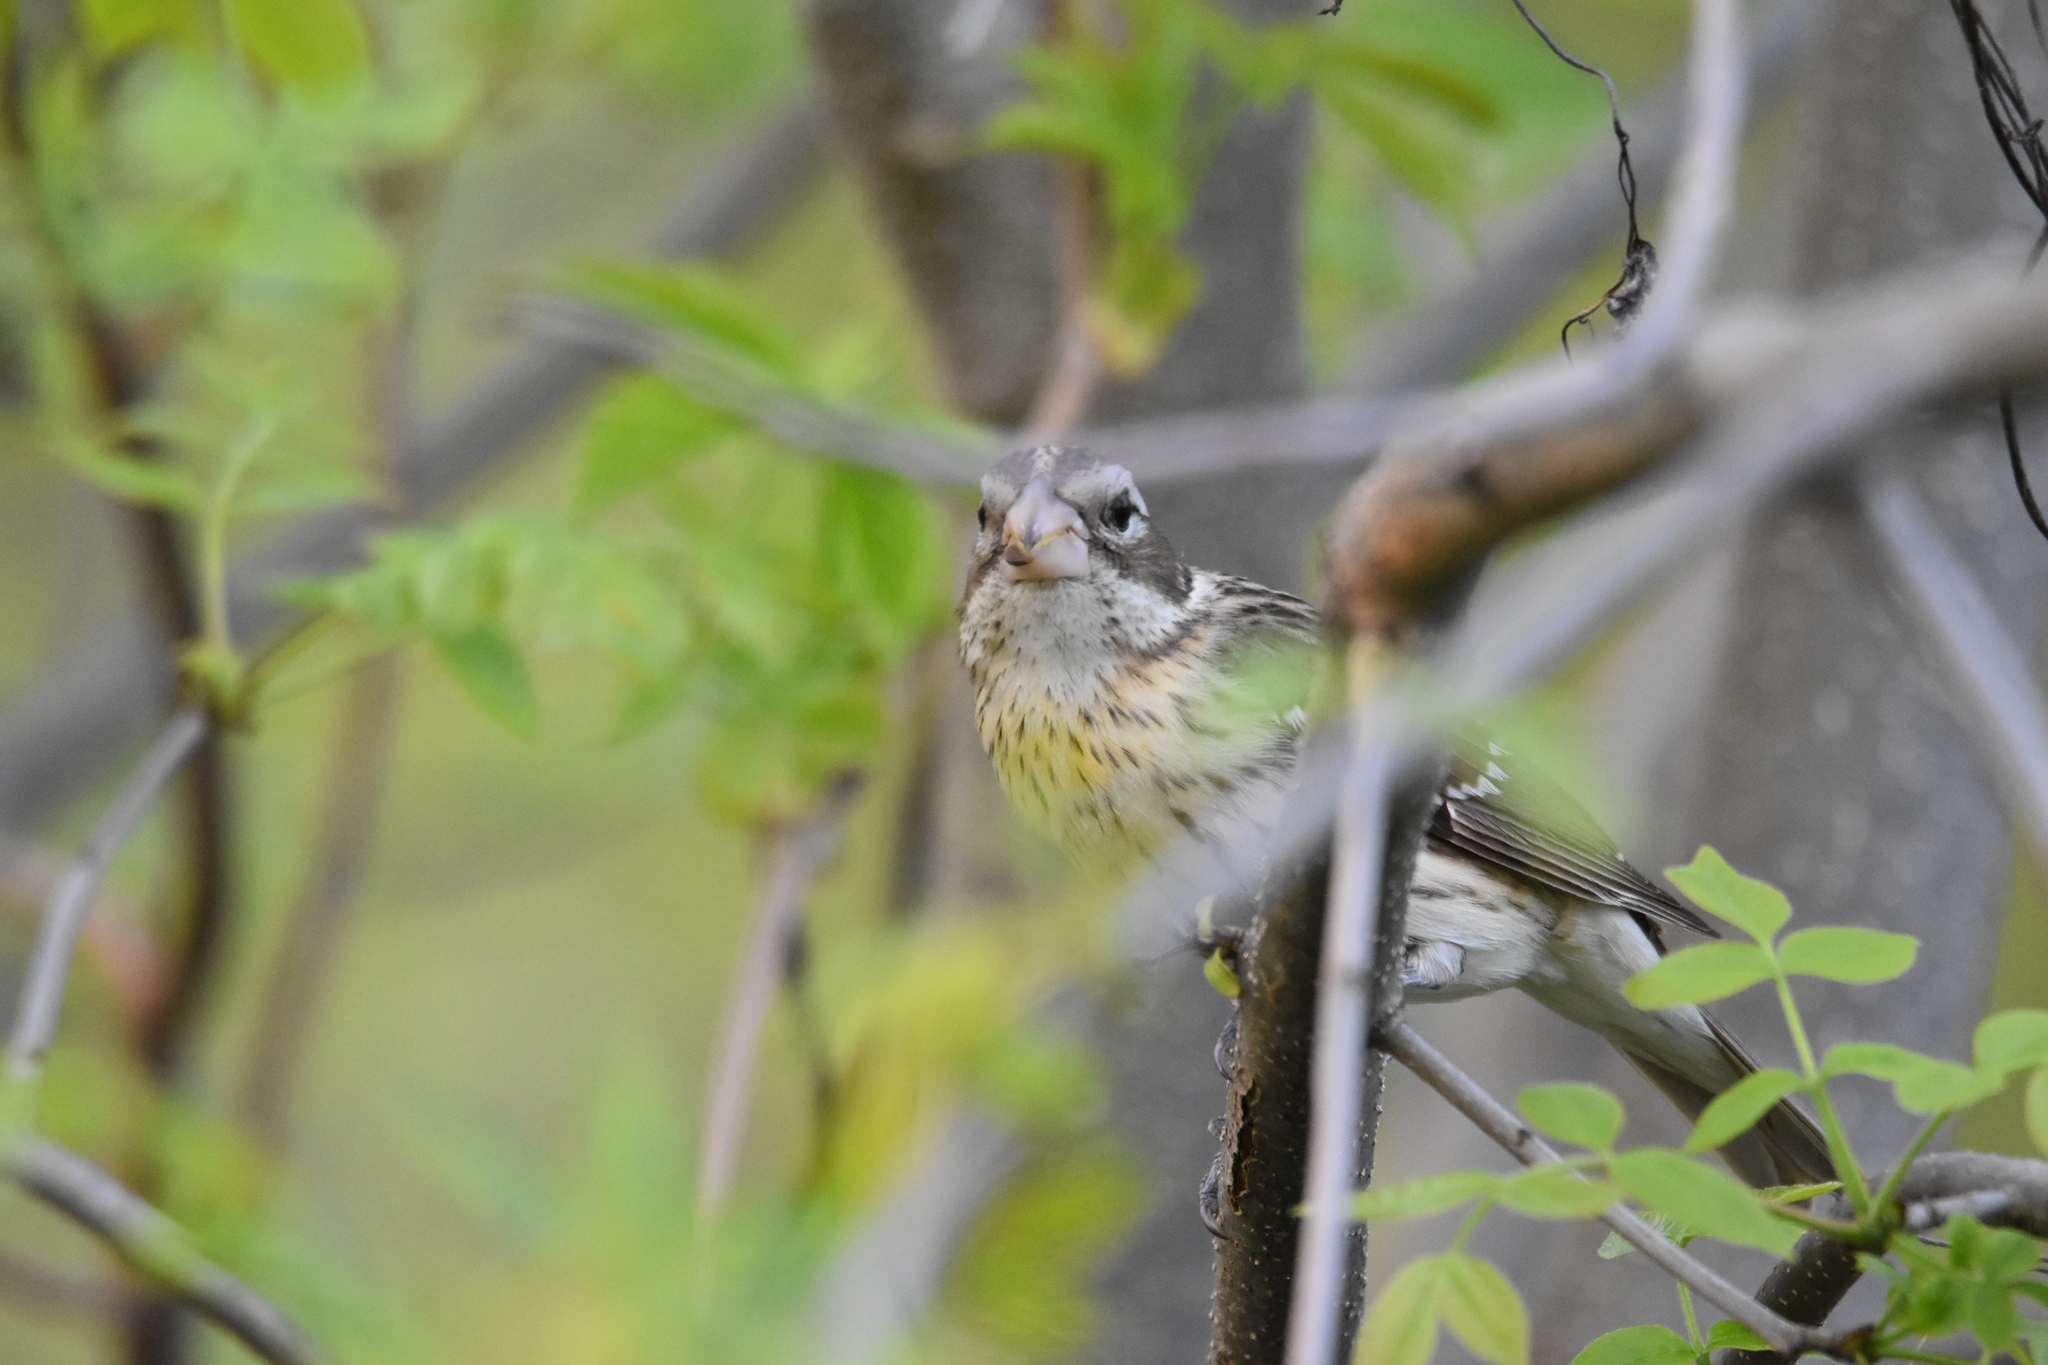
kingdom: Animalia
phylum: Chordata
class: Aves
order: Passeriformes
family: Cardinalidae
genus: Pheucticus
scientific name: Pheucticus ludovicianus
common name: Rose-breasted grosbeak
